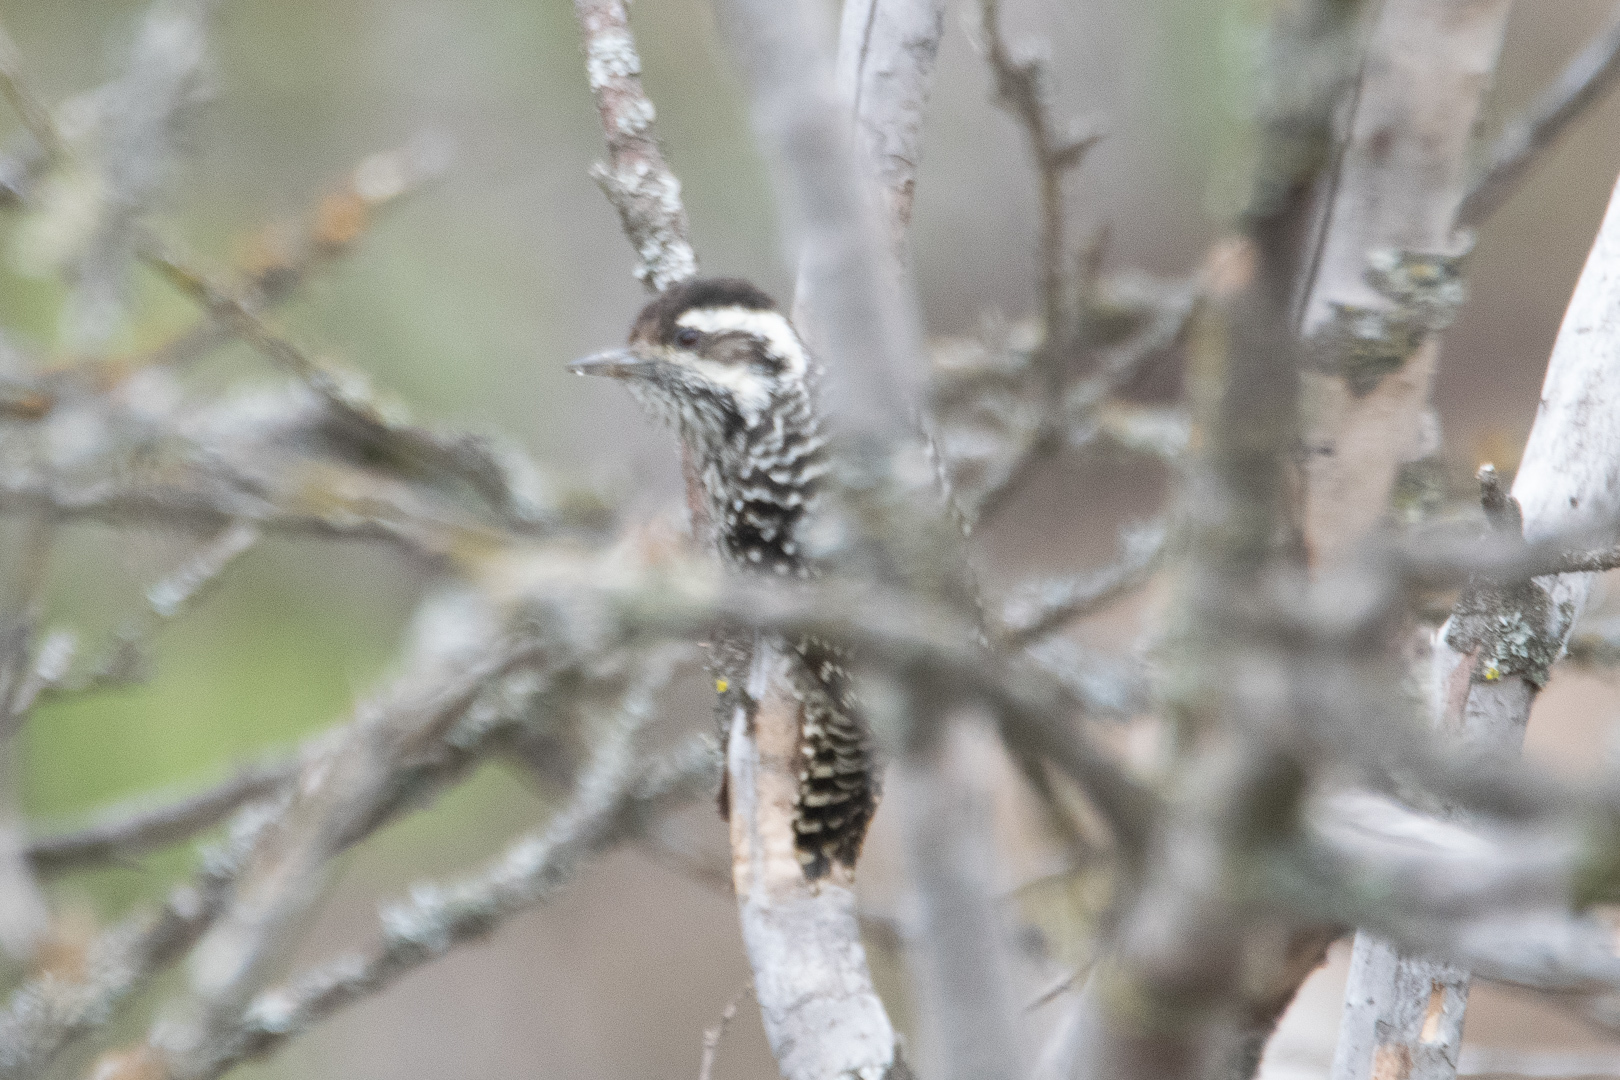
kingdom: Animalia
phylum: Chordata
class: Aves
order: Piciformes
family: Picidae
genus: Veniliornis
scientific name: Veniliornis lignarius
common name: Striped woodpecker
